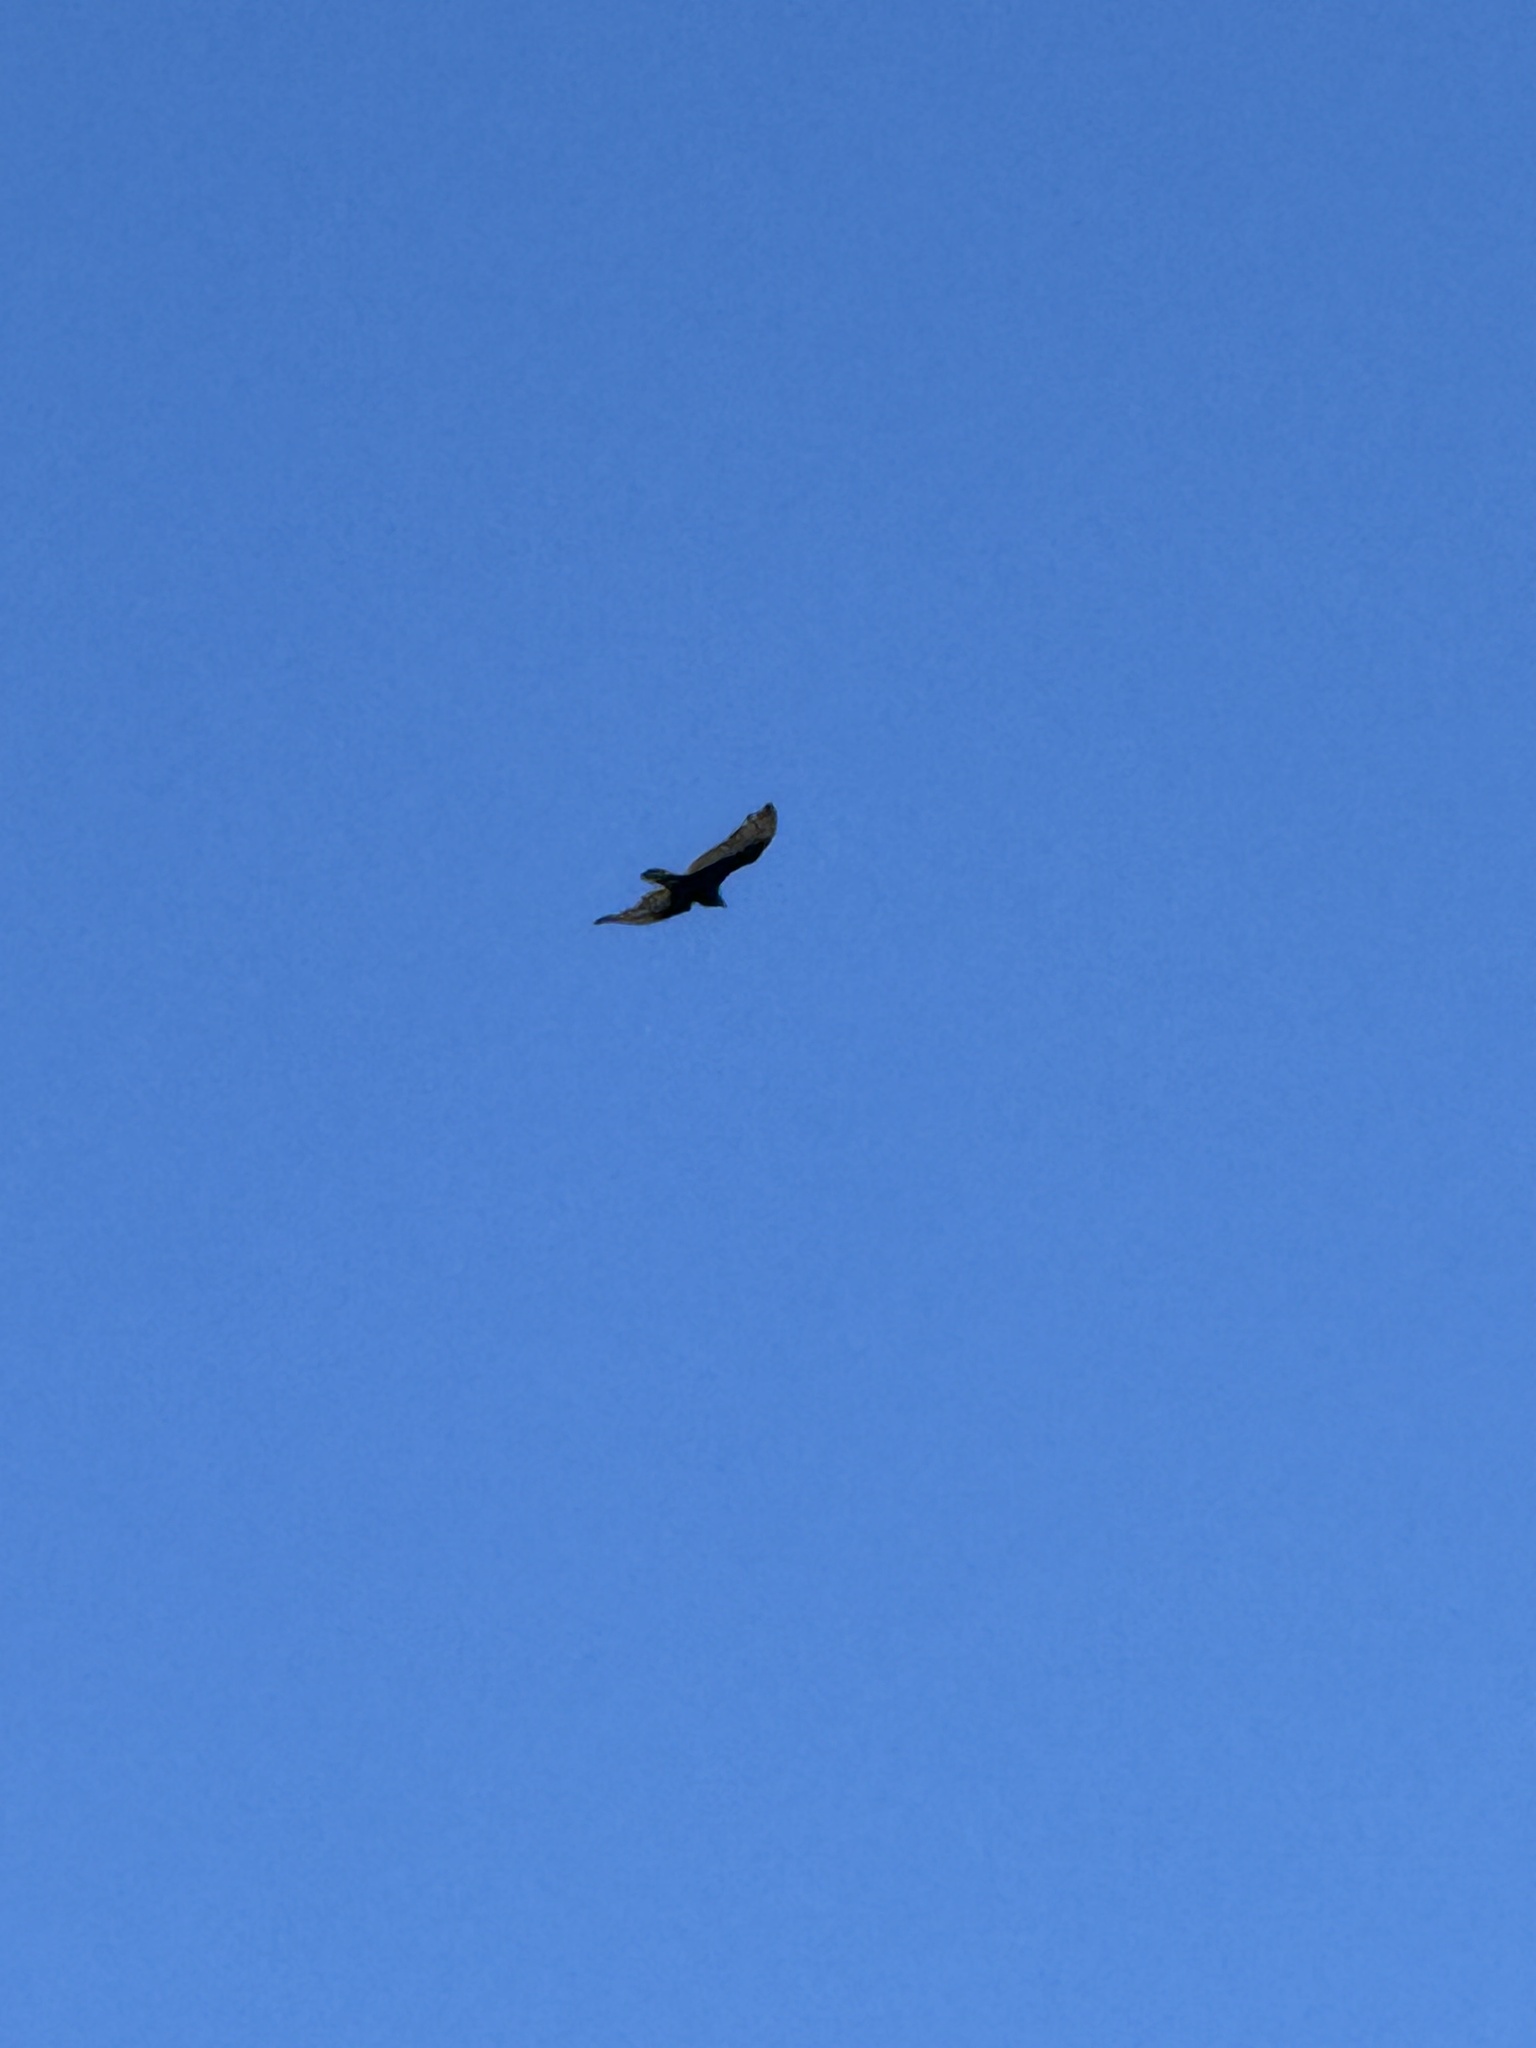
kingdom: Animalia
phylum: Chordata
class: Aves
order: Accipitriformes
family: Cathartidae
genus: Cathartes
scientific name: Cathartes aura
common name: Turkey vulture
